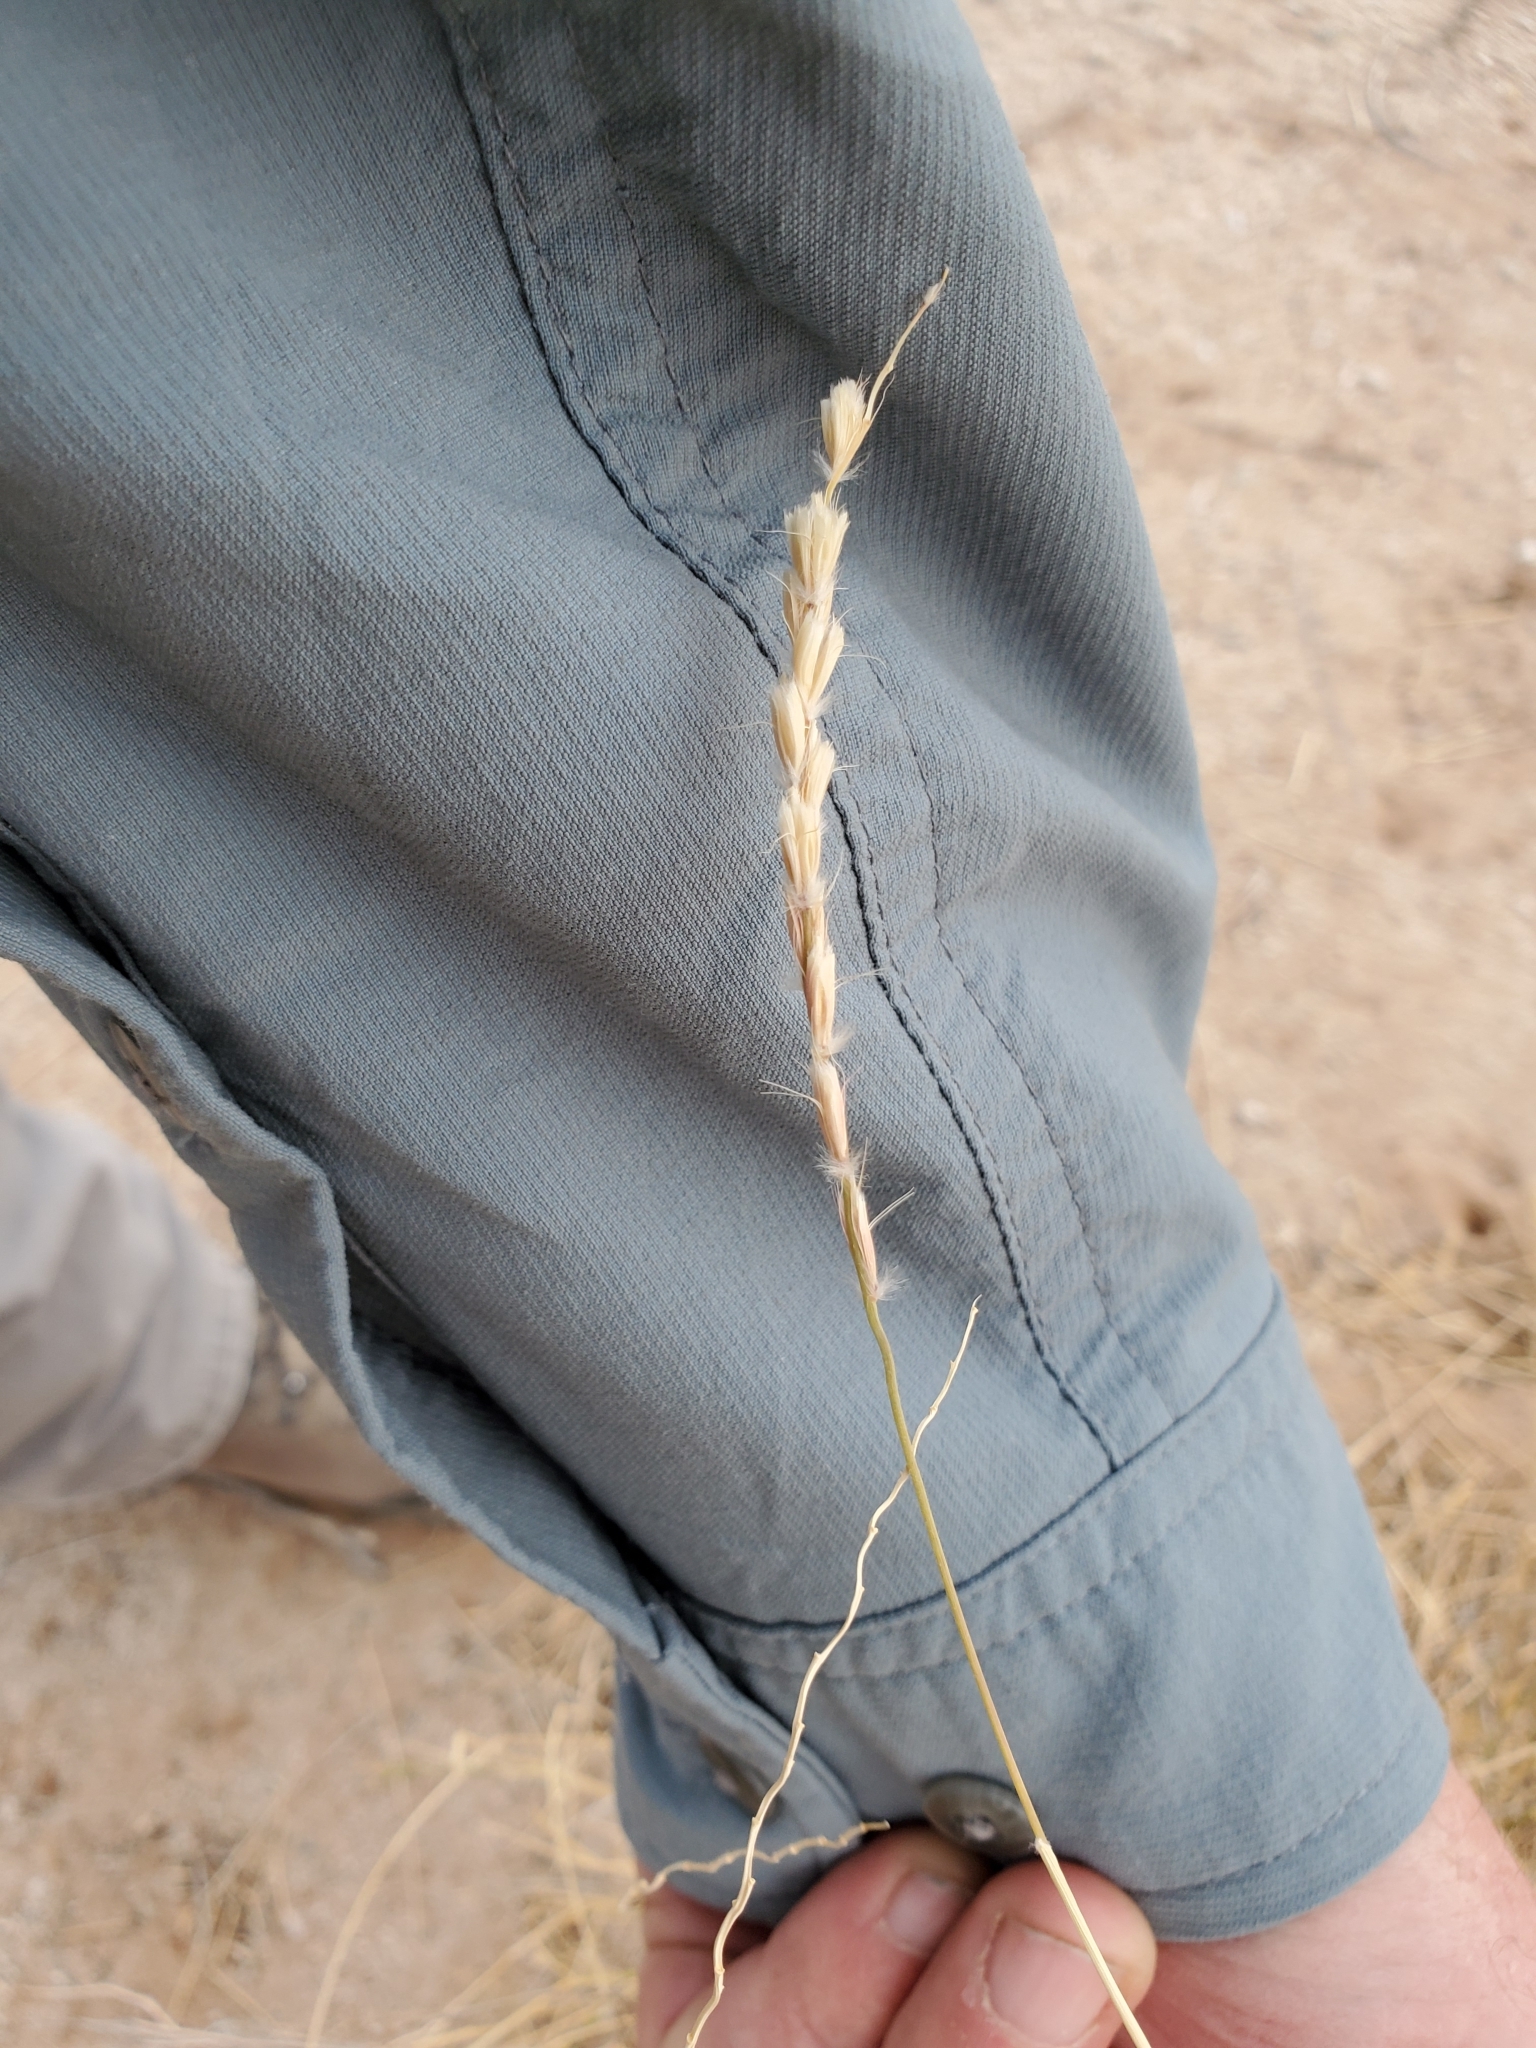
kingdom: Plantae
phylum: Tracheophyta
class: Liliopsida
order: Poales
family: Poaceae
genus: Hilaria
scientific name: Hilaria rigida
